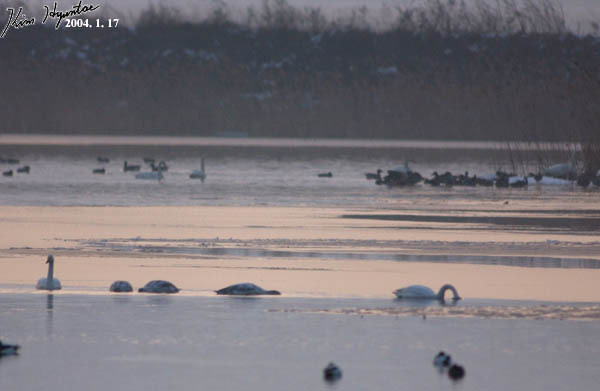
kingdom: Animalia
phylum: Chordata
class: Aves
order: Anseriformes
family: Anatidae
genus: Cygnus
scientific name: Cygnus cygnus
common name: Whooper swan
